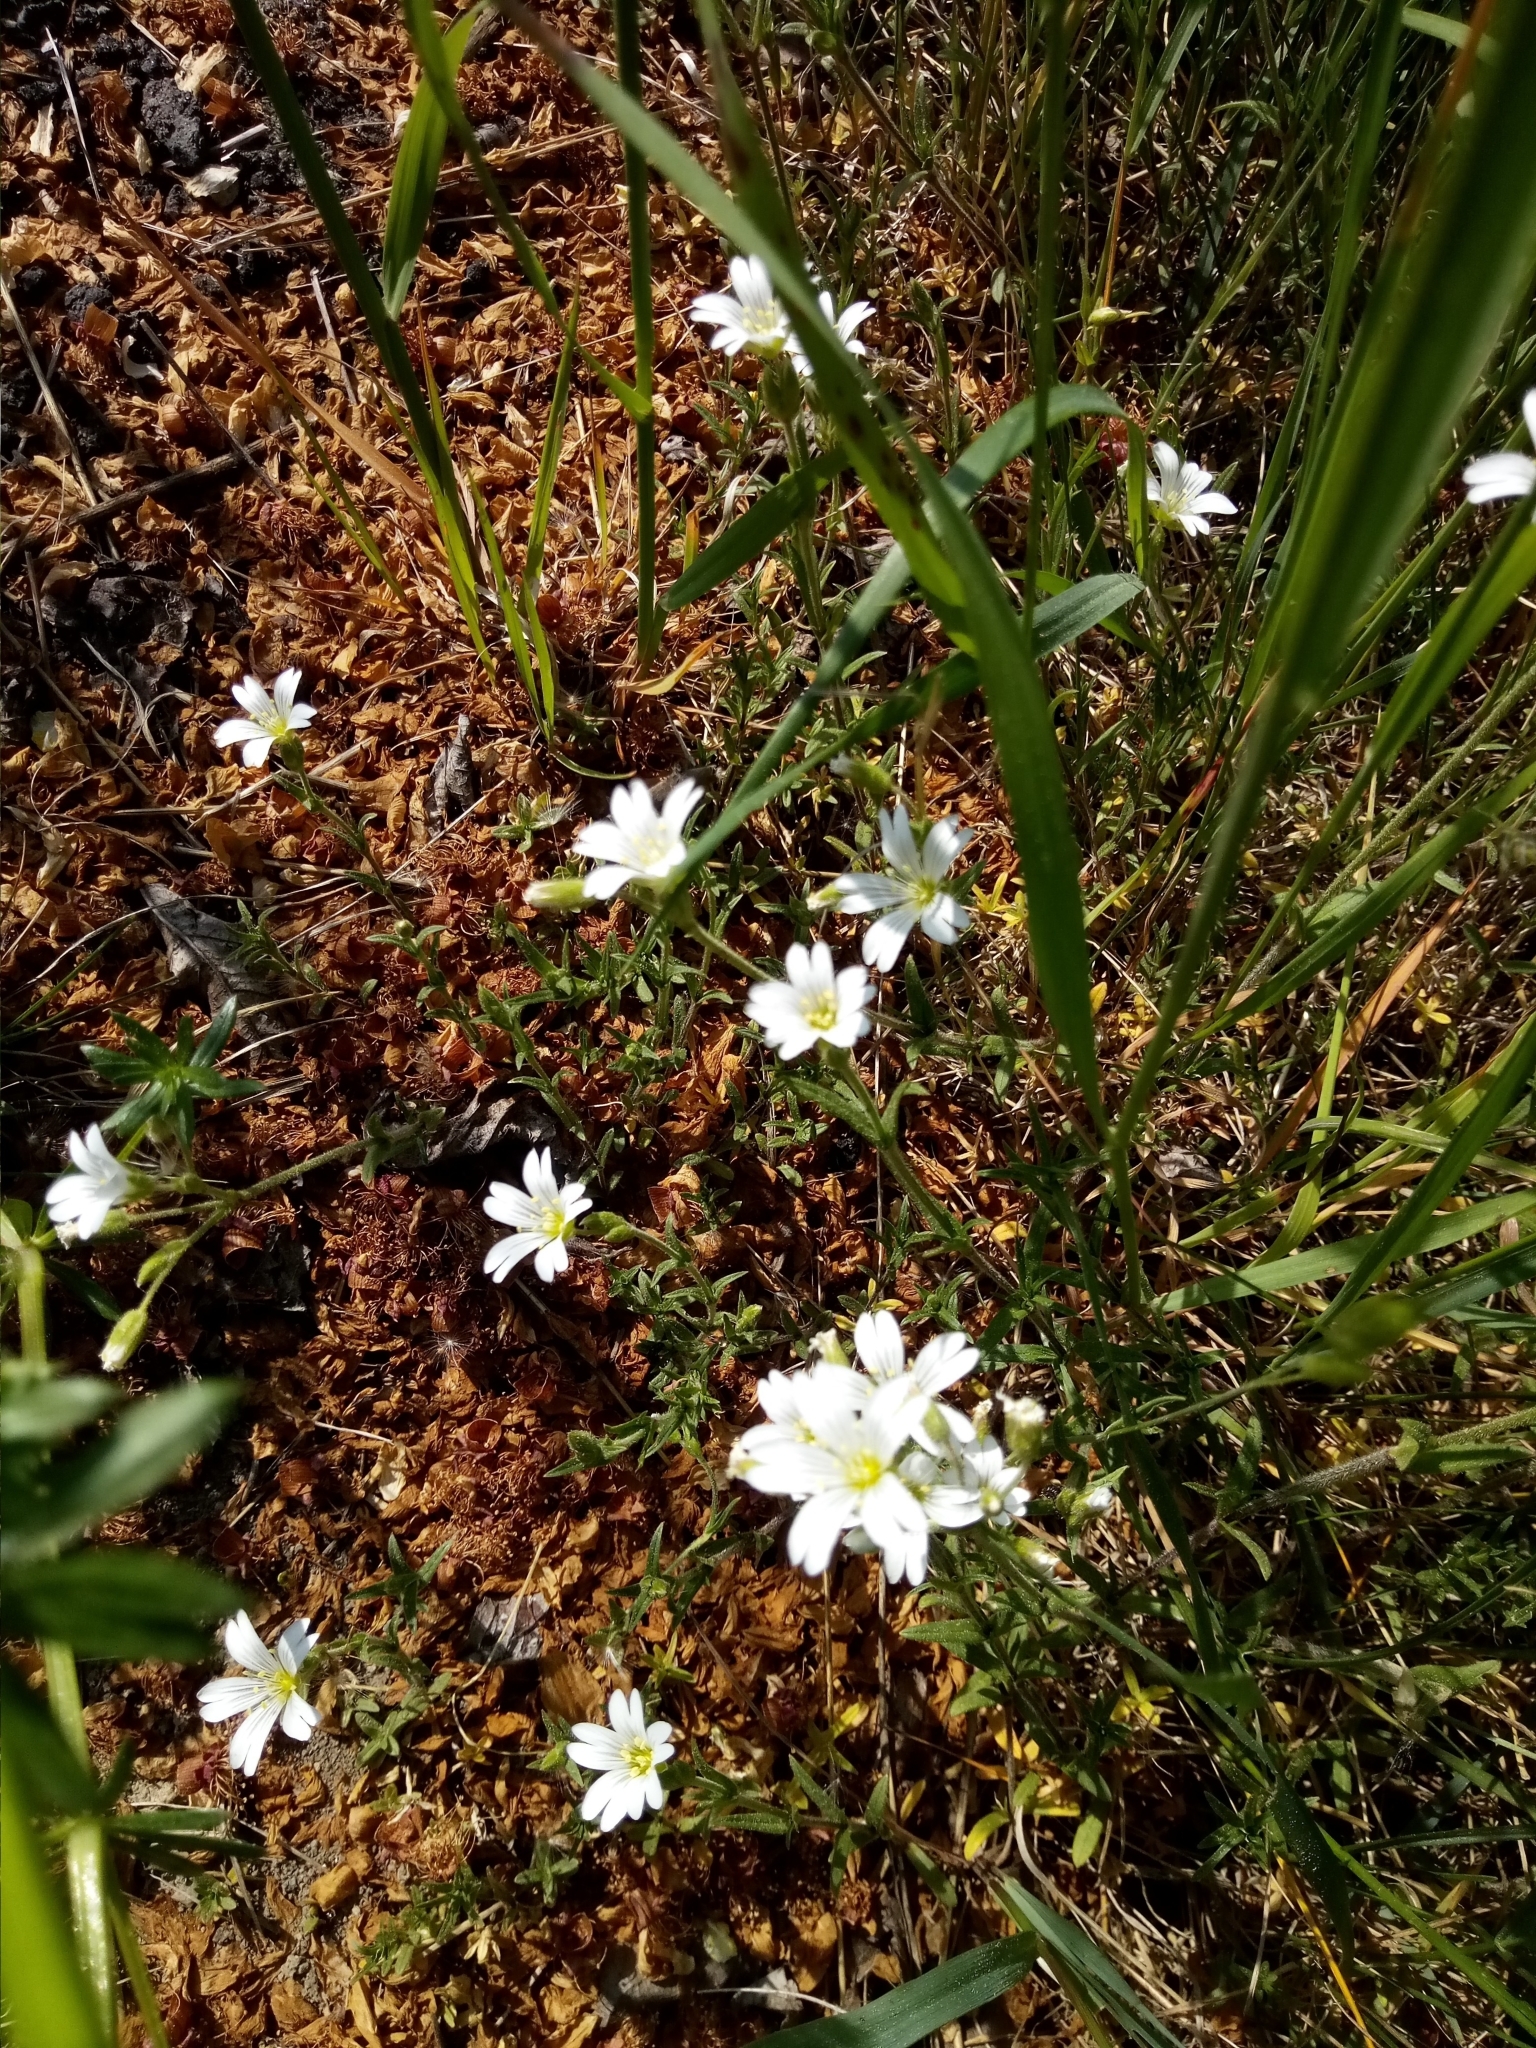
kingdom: Plantae
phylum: Tracheophyta
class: Magnoliopsida
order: Caryophyllales
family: Caryophyllaceae
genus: Cerastium
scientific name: Cerastium arvense
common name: Field mouse-ear
